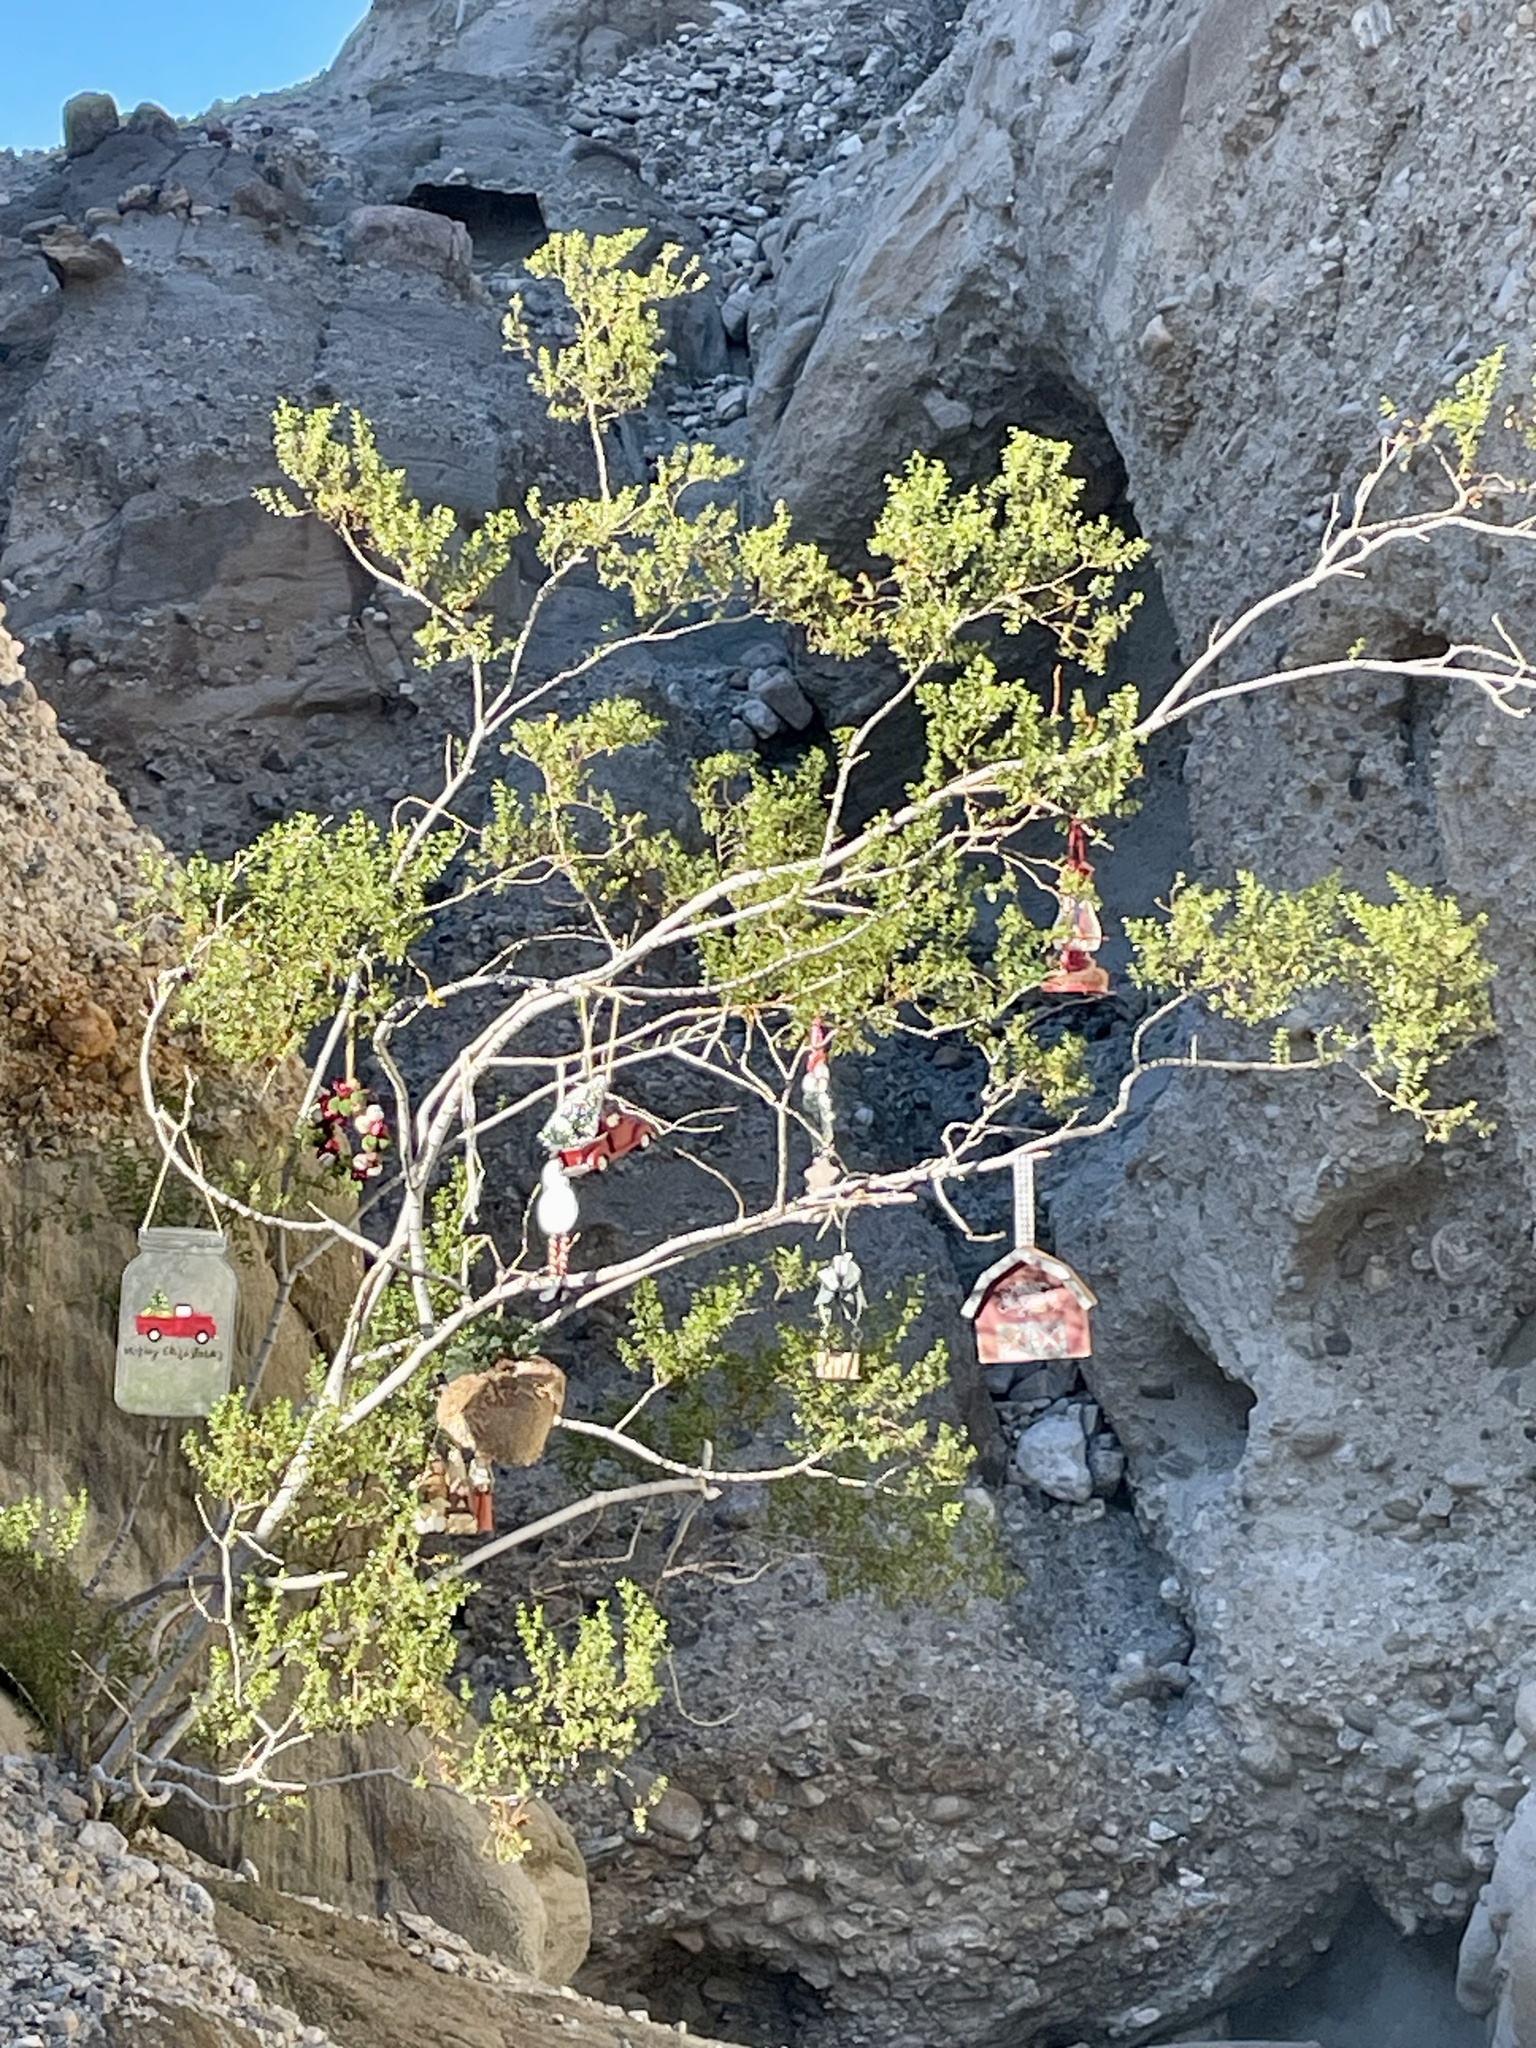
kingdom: Plantae
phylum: Tracheophyta
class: Magnoliopsida
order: Zygophyllales
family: Zygophyllaceae
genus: Larrea
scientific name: Larrea tridentata
